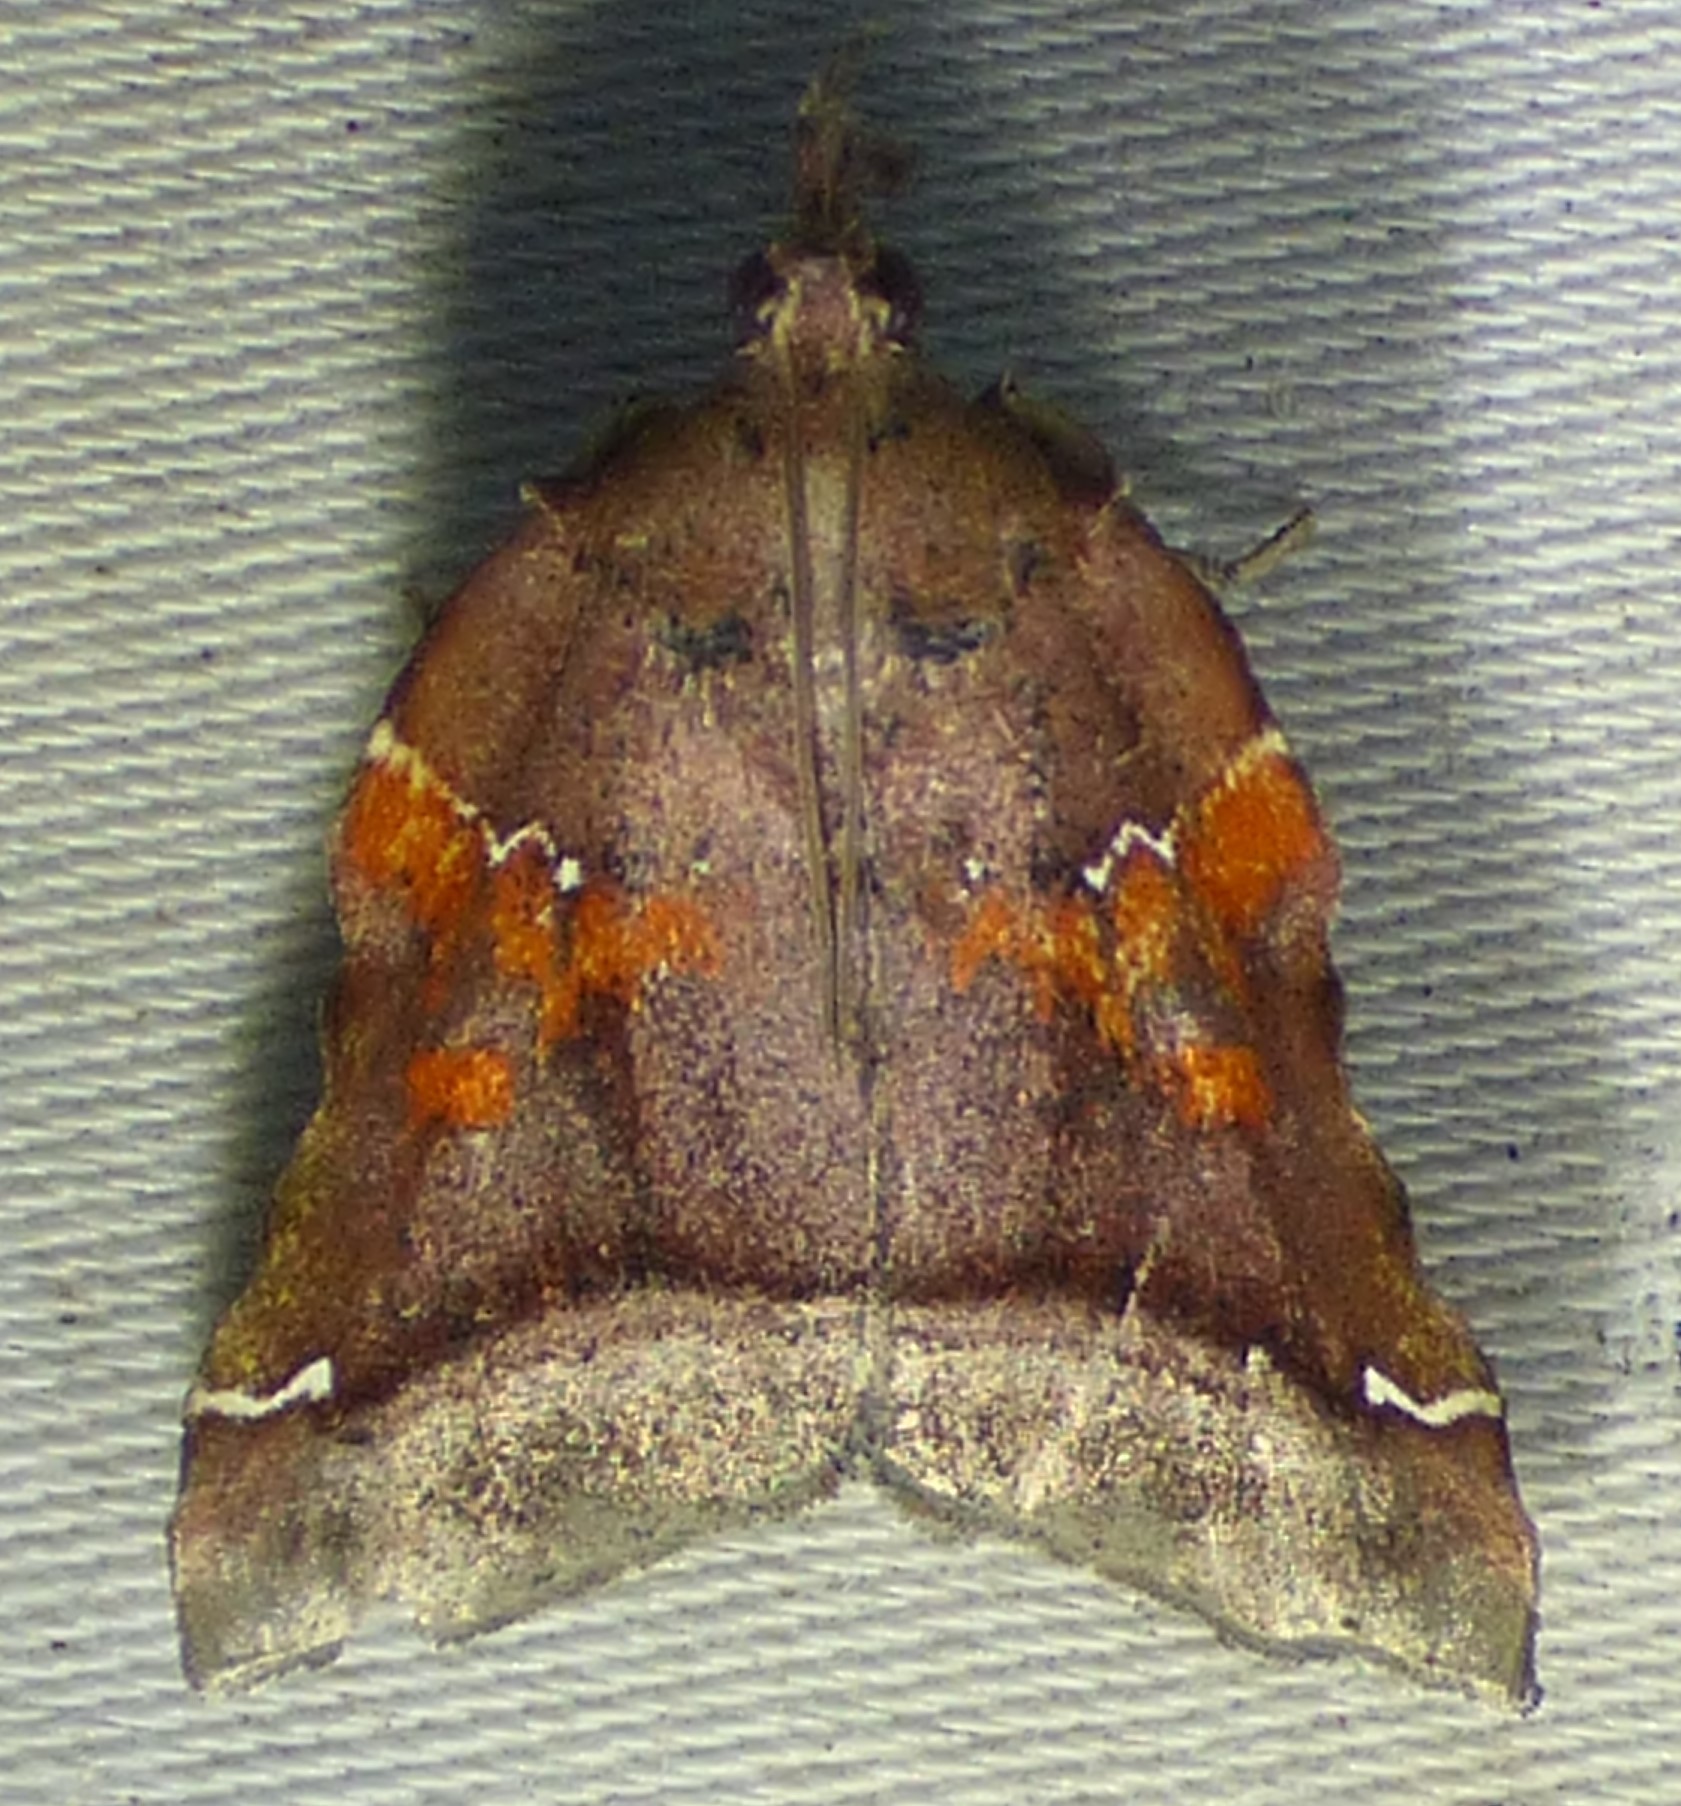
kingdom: Animalia
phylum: Arthropoda
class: Insecta
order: Lepidoptera
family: Pyralidae
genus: Clydonopteron
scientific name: Clydonopteron sacculana
